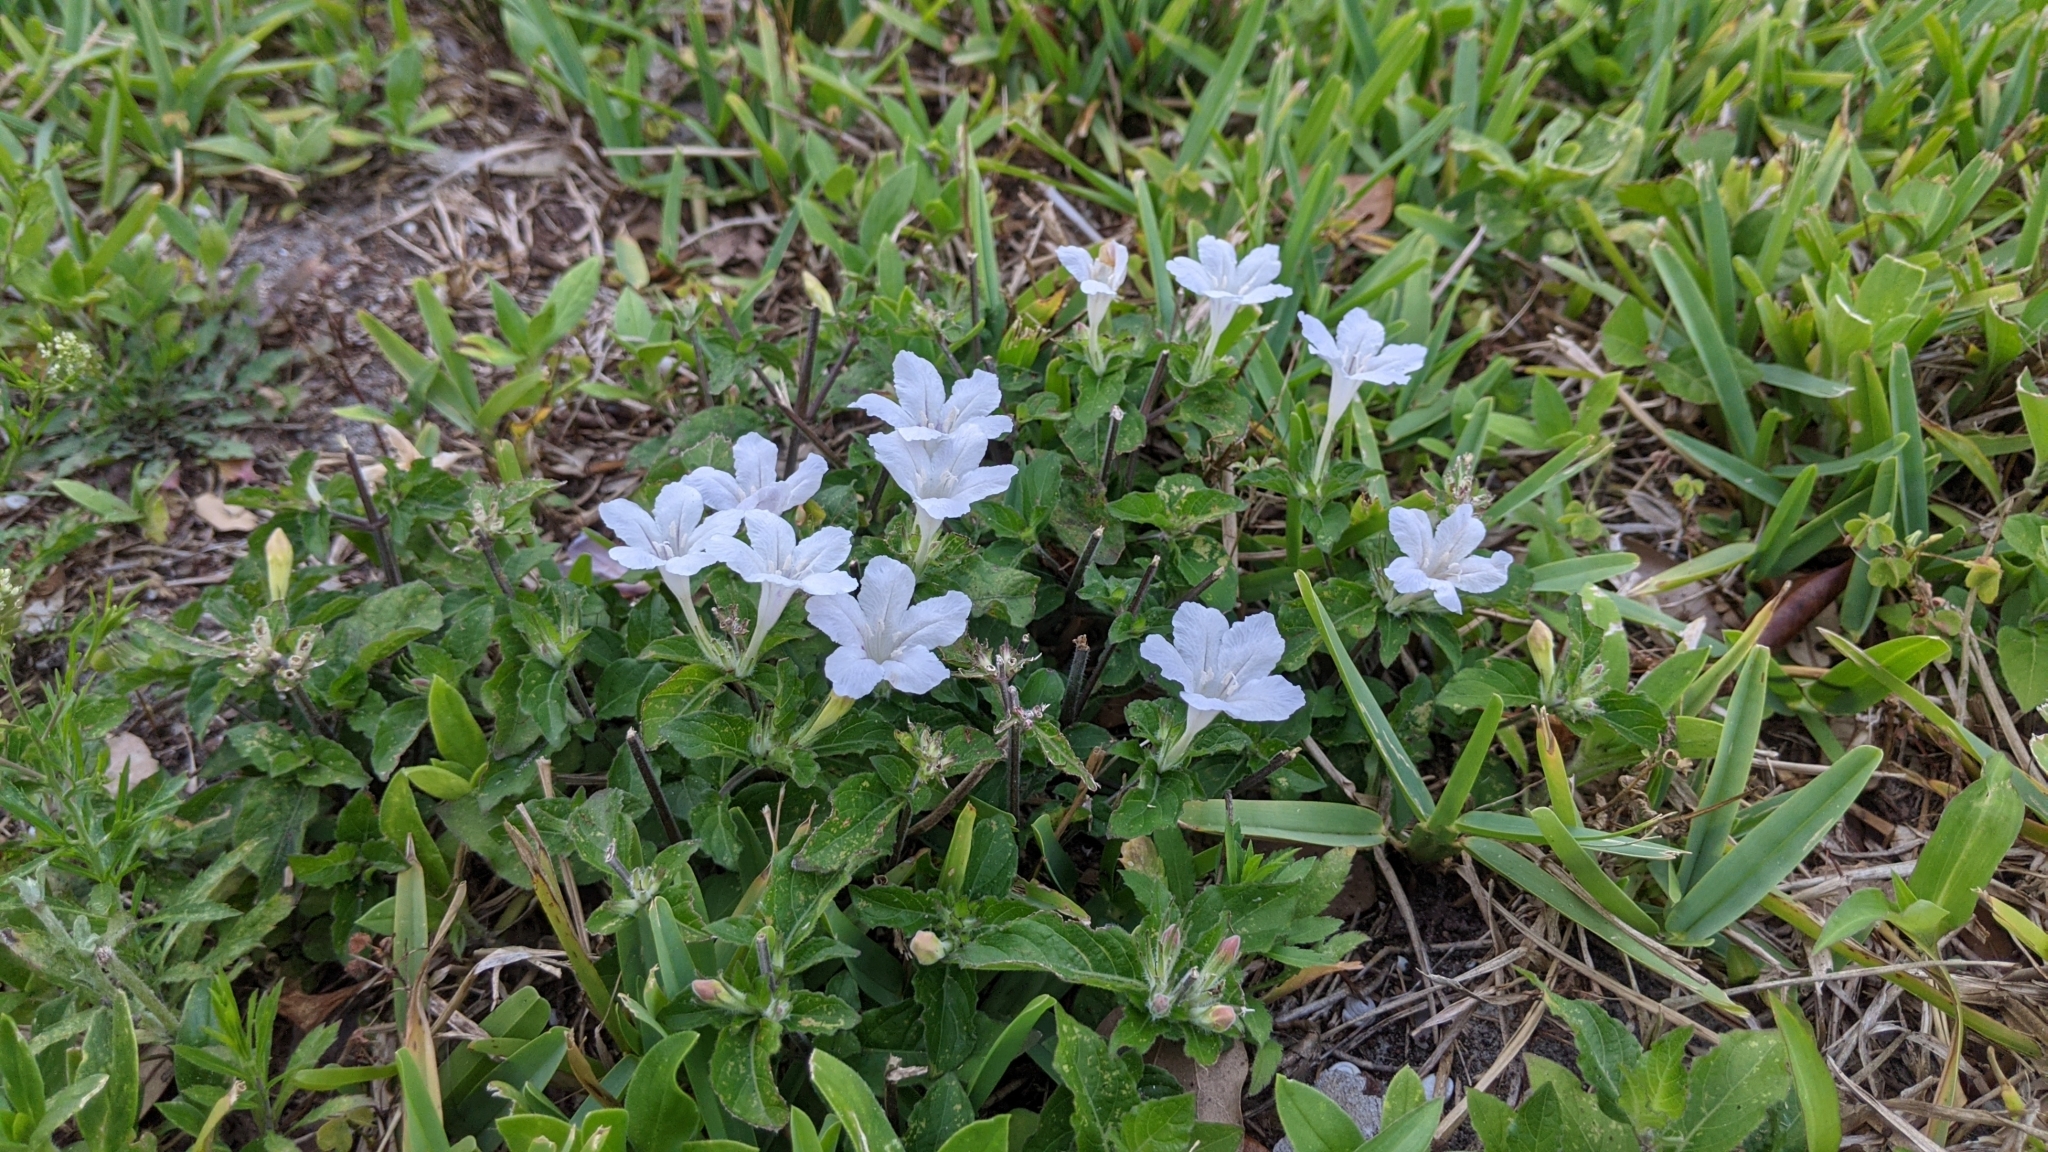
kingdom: Plantae
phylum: Tracheophyta
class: Magnoliopsida
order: Lamiales
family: Acanthaceae
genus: Ruellia
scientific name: Ruellia caroliniensis
